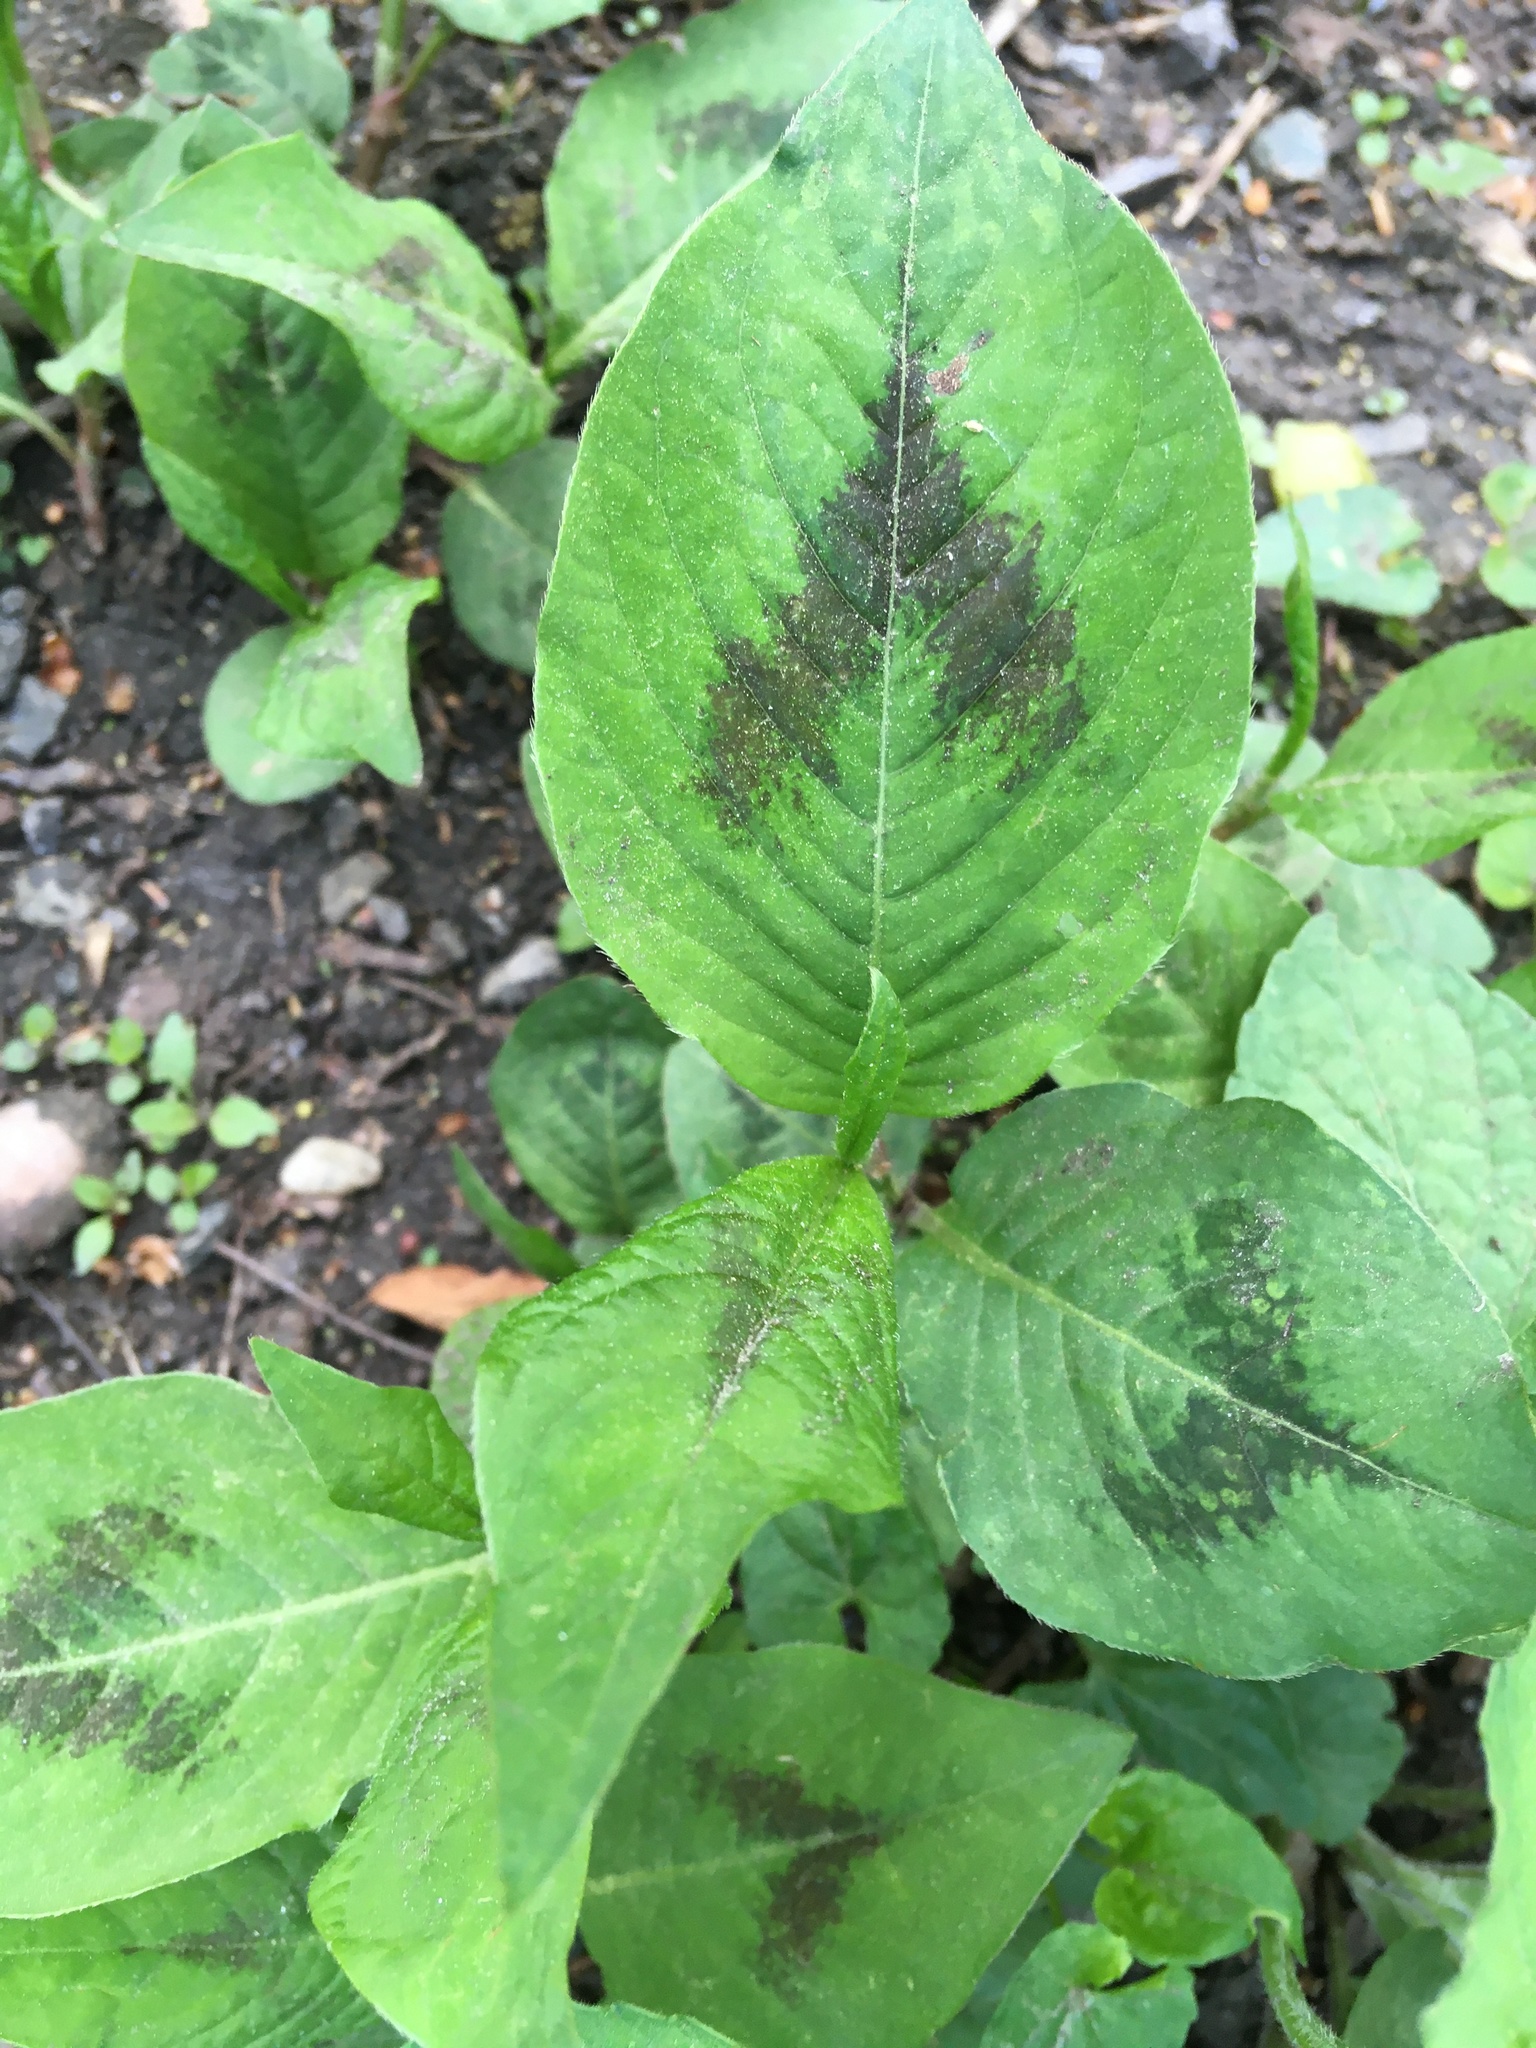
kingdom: Plantae
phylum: Tracheophyta
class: Magnoliopsida
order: Caryophyllales
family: Polygonaceae
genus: Persicaria
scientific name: Persicaria virginiana
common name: Jumpseed
